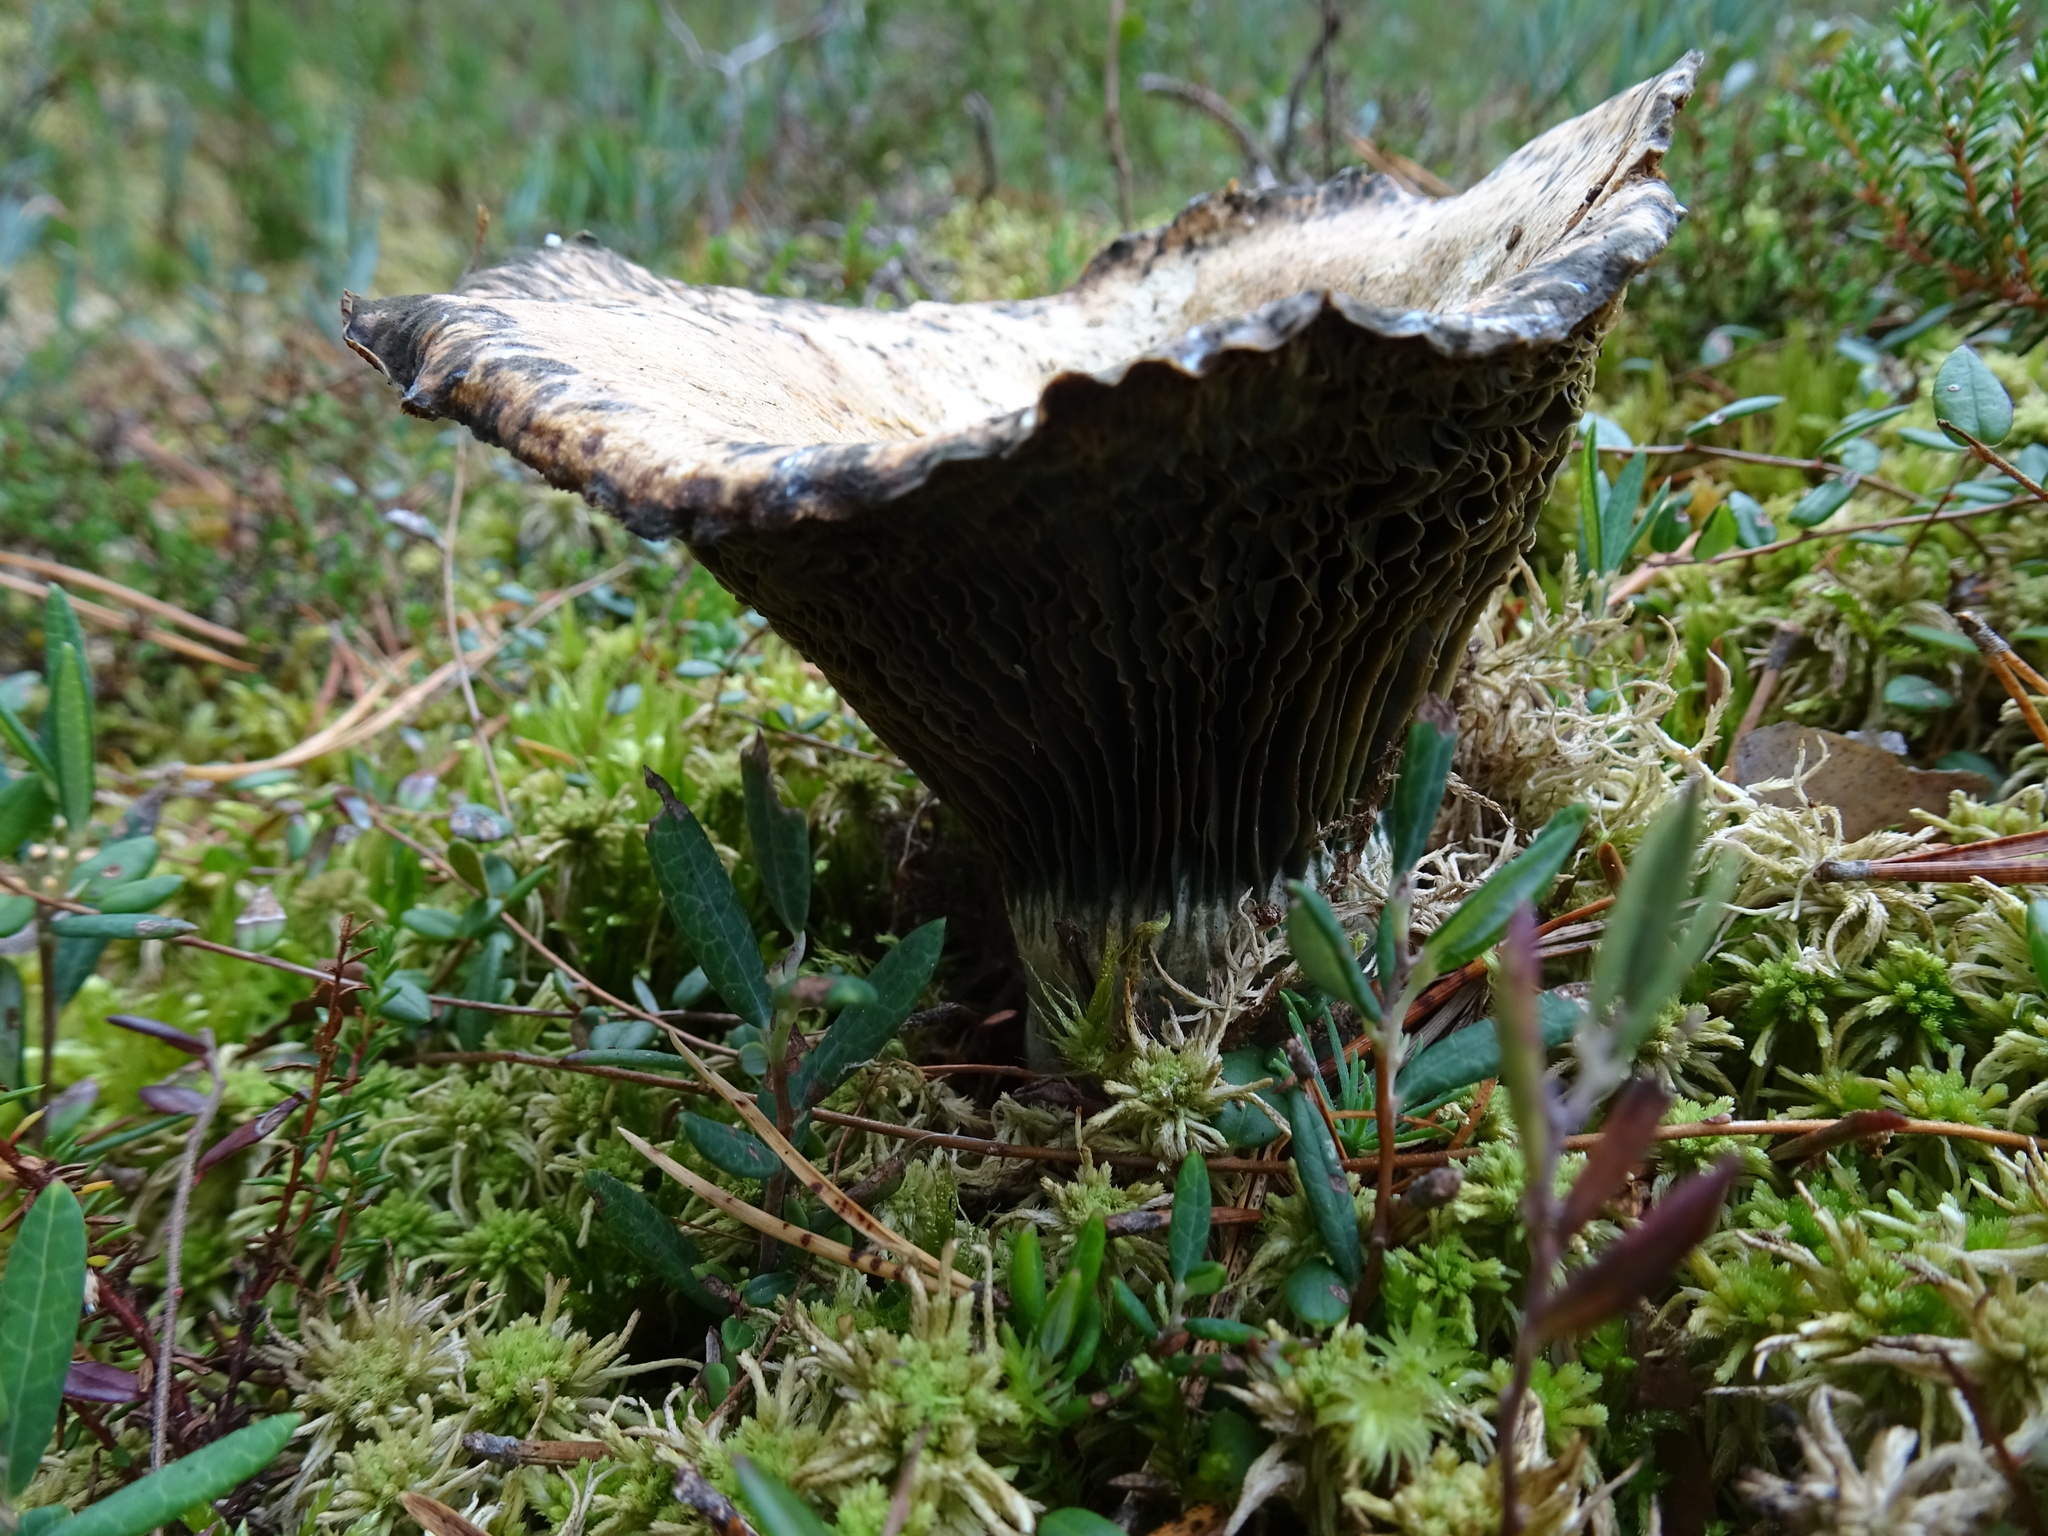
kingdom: Fungi
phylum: Basidiomycota
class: Agaricomycetes
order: Boletales
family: Gomphidiaceae
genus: Gomphidius
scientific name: Gomphidius glutinosus
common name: Slimy spike
